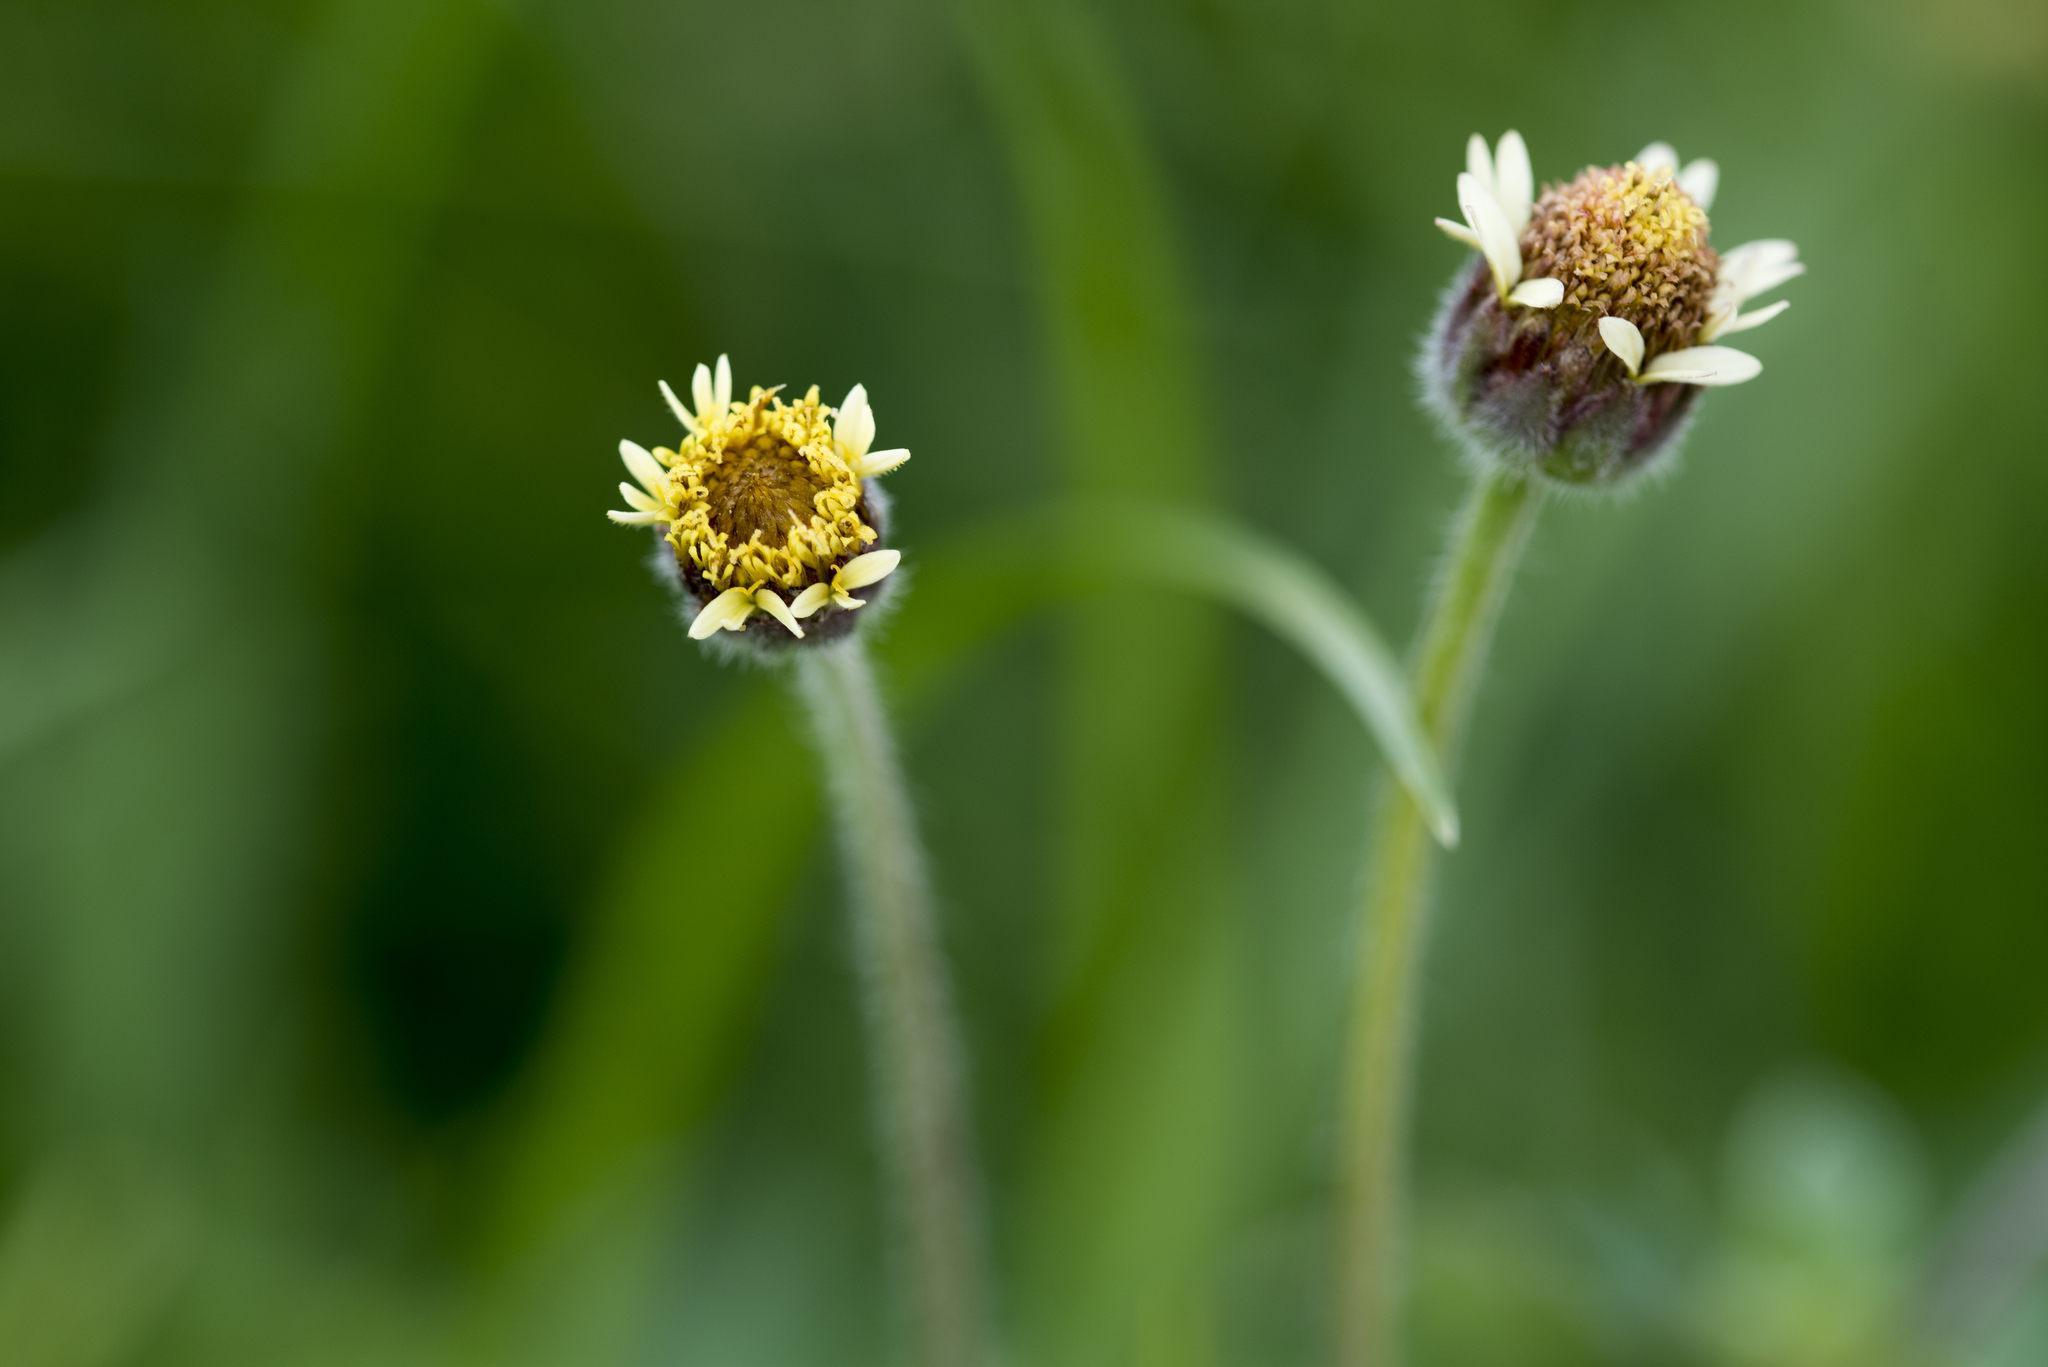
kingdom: Plantae
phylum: Tracheophyta
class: Magnoliopsida
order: Asterales
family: Asteraceae
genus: Tridax
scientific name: Tridax procumbens
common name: Coatbuttons
